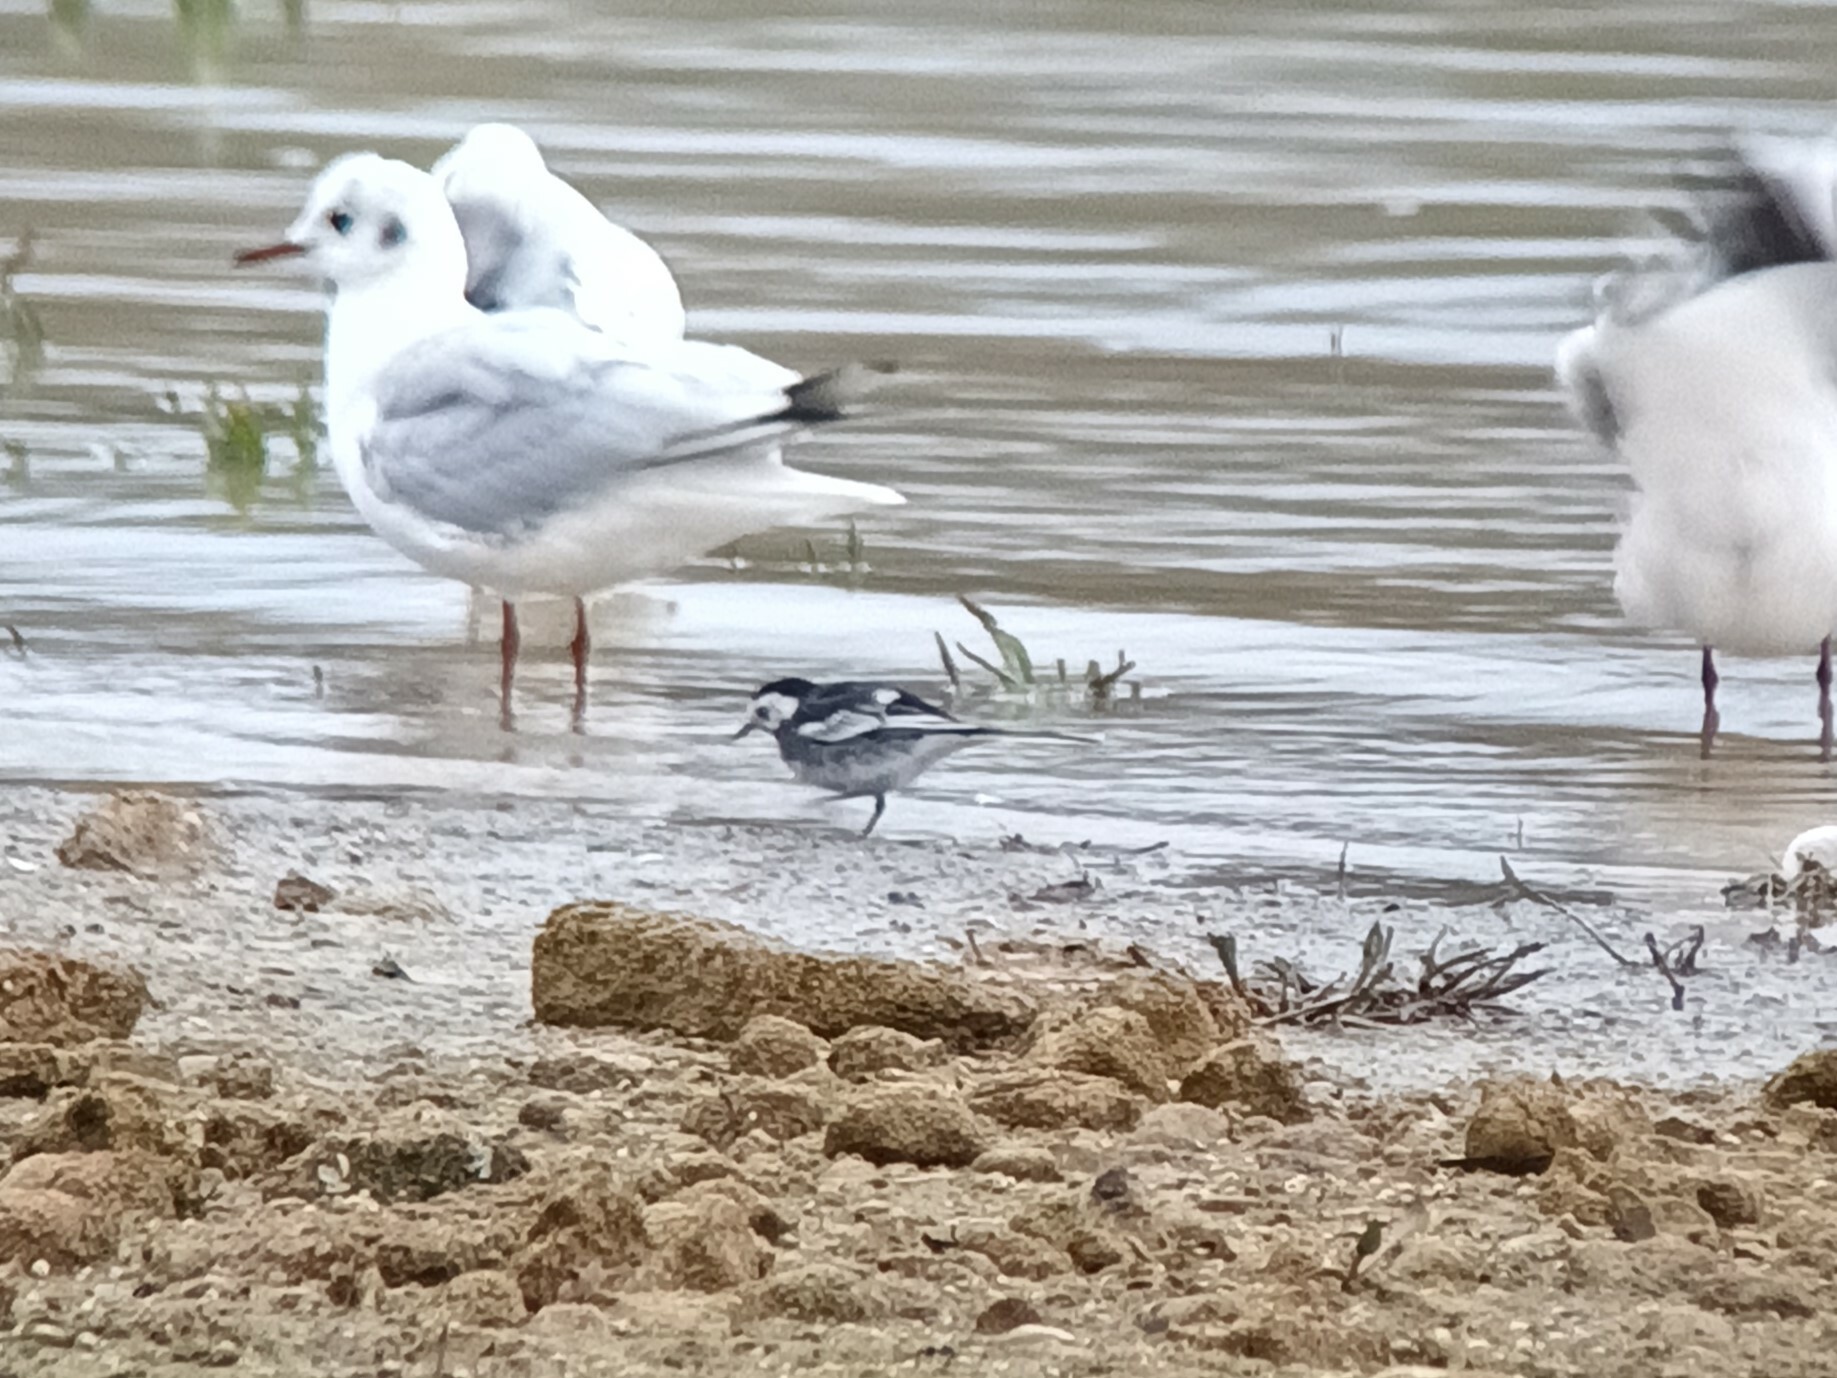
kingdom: Animalia
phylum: Chordata
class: Aves
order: Passeriformes
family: Motacillidae
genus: Motacilla
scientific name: Motacilla alba
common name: White wagtail
